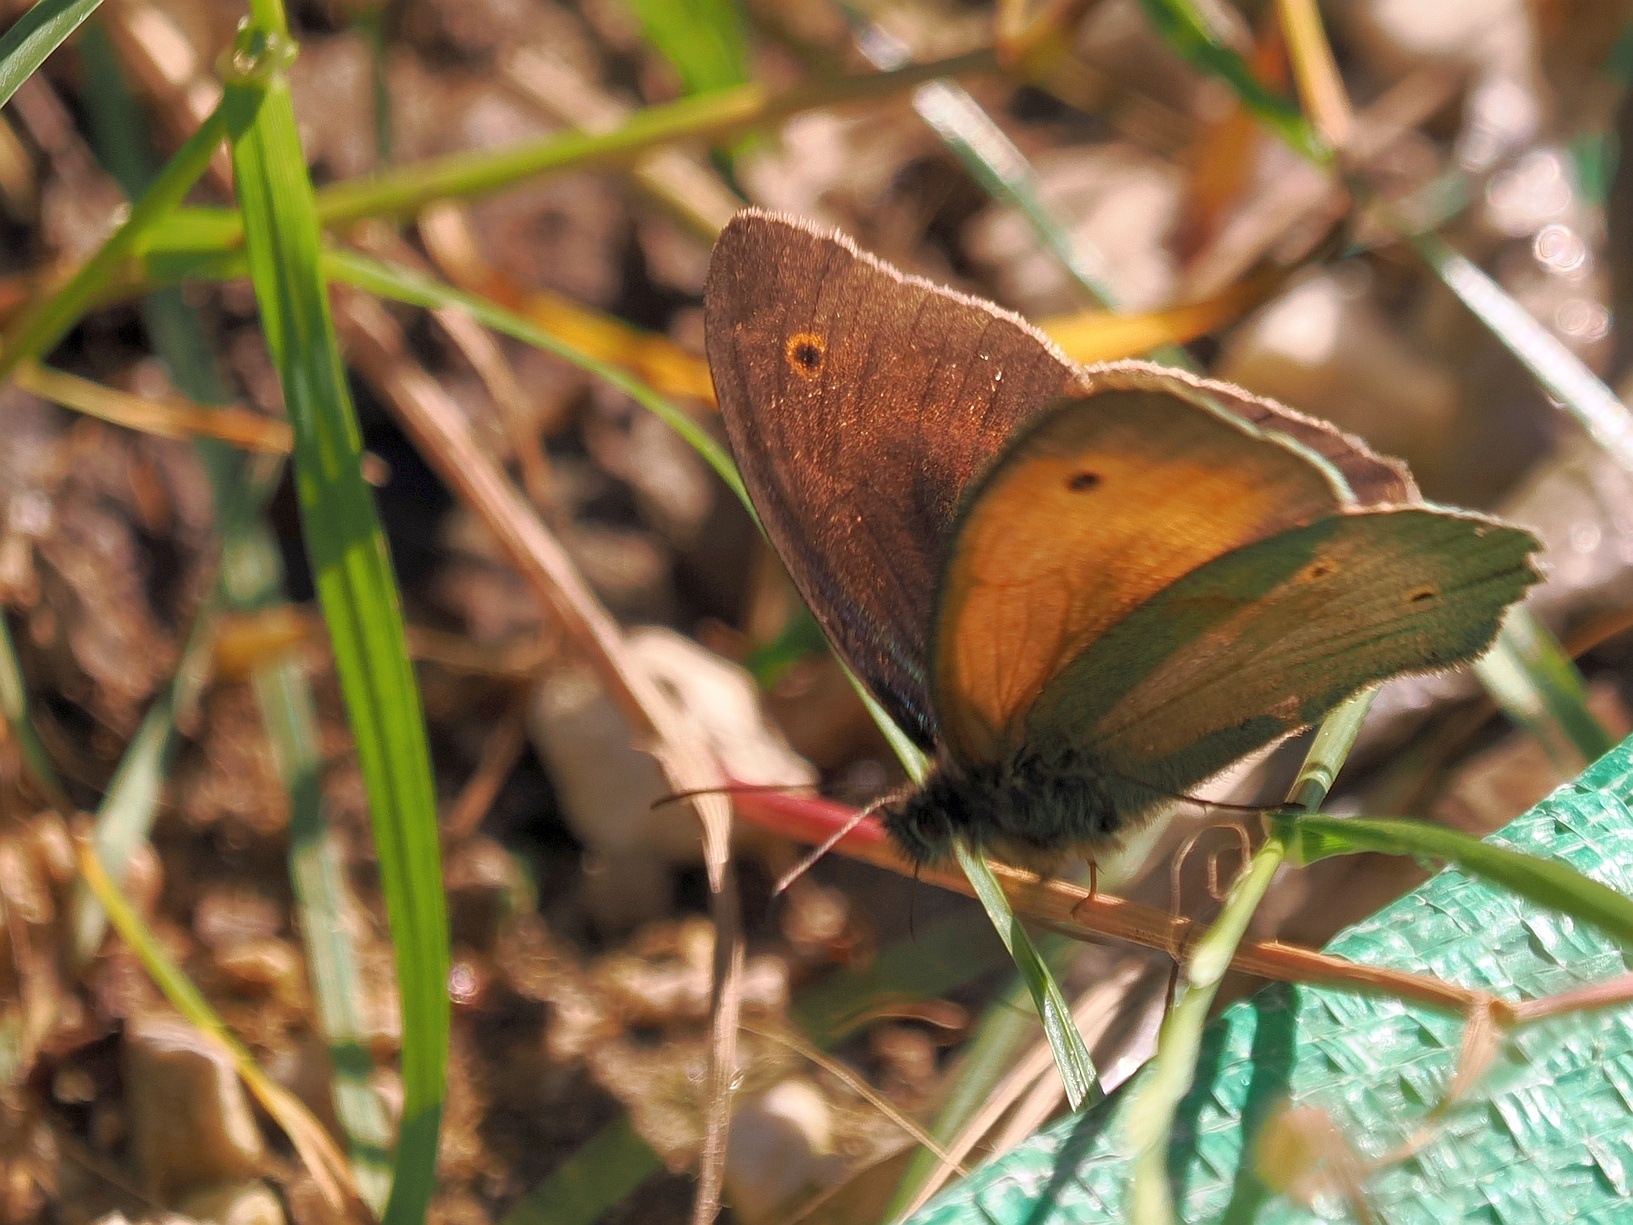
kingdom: Animalia
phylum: Arthropoda
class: Insecta
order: Lepidoptera
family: Nymphalidae
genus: Maniola
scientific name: Maniola jurtina
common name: Meadow brown
